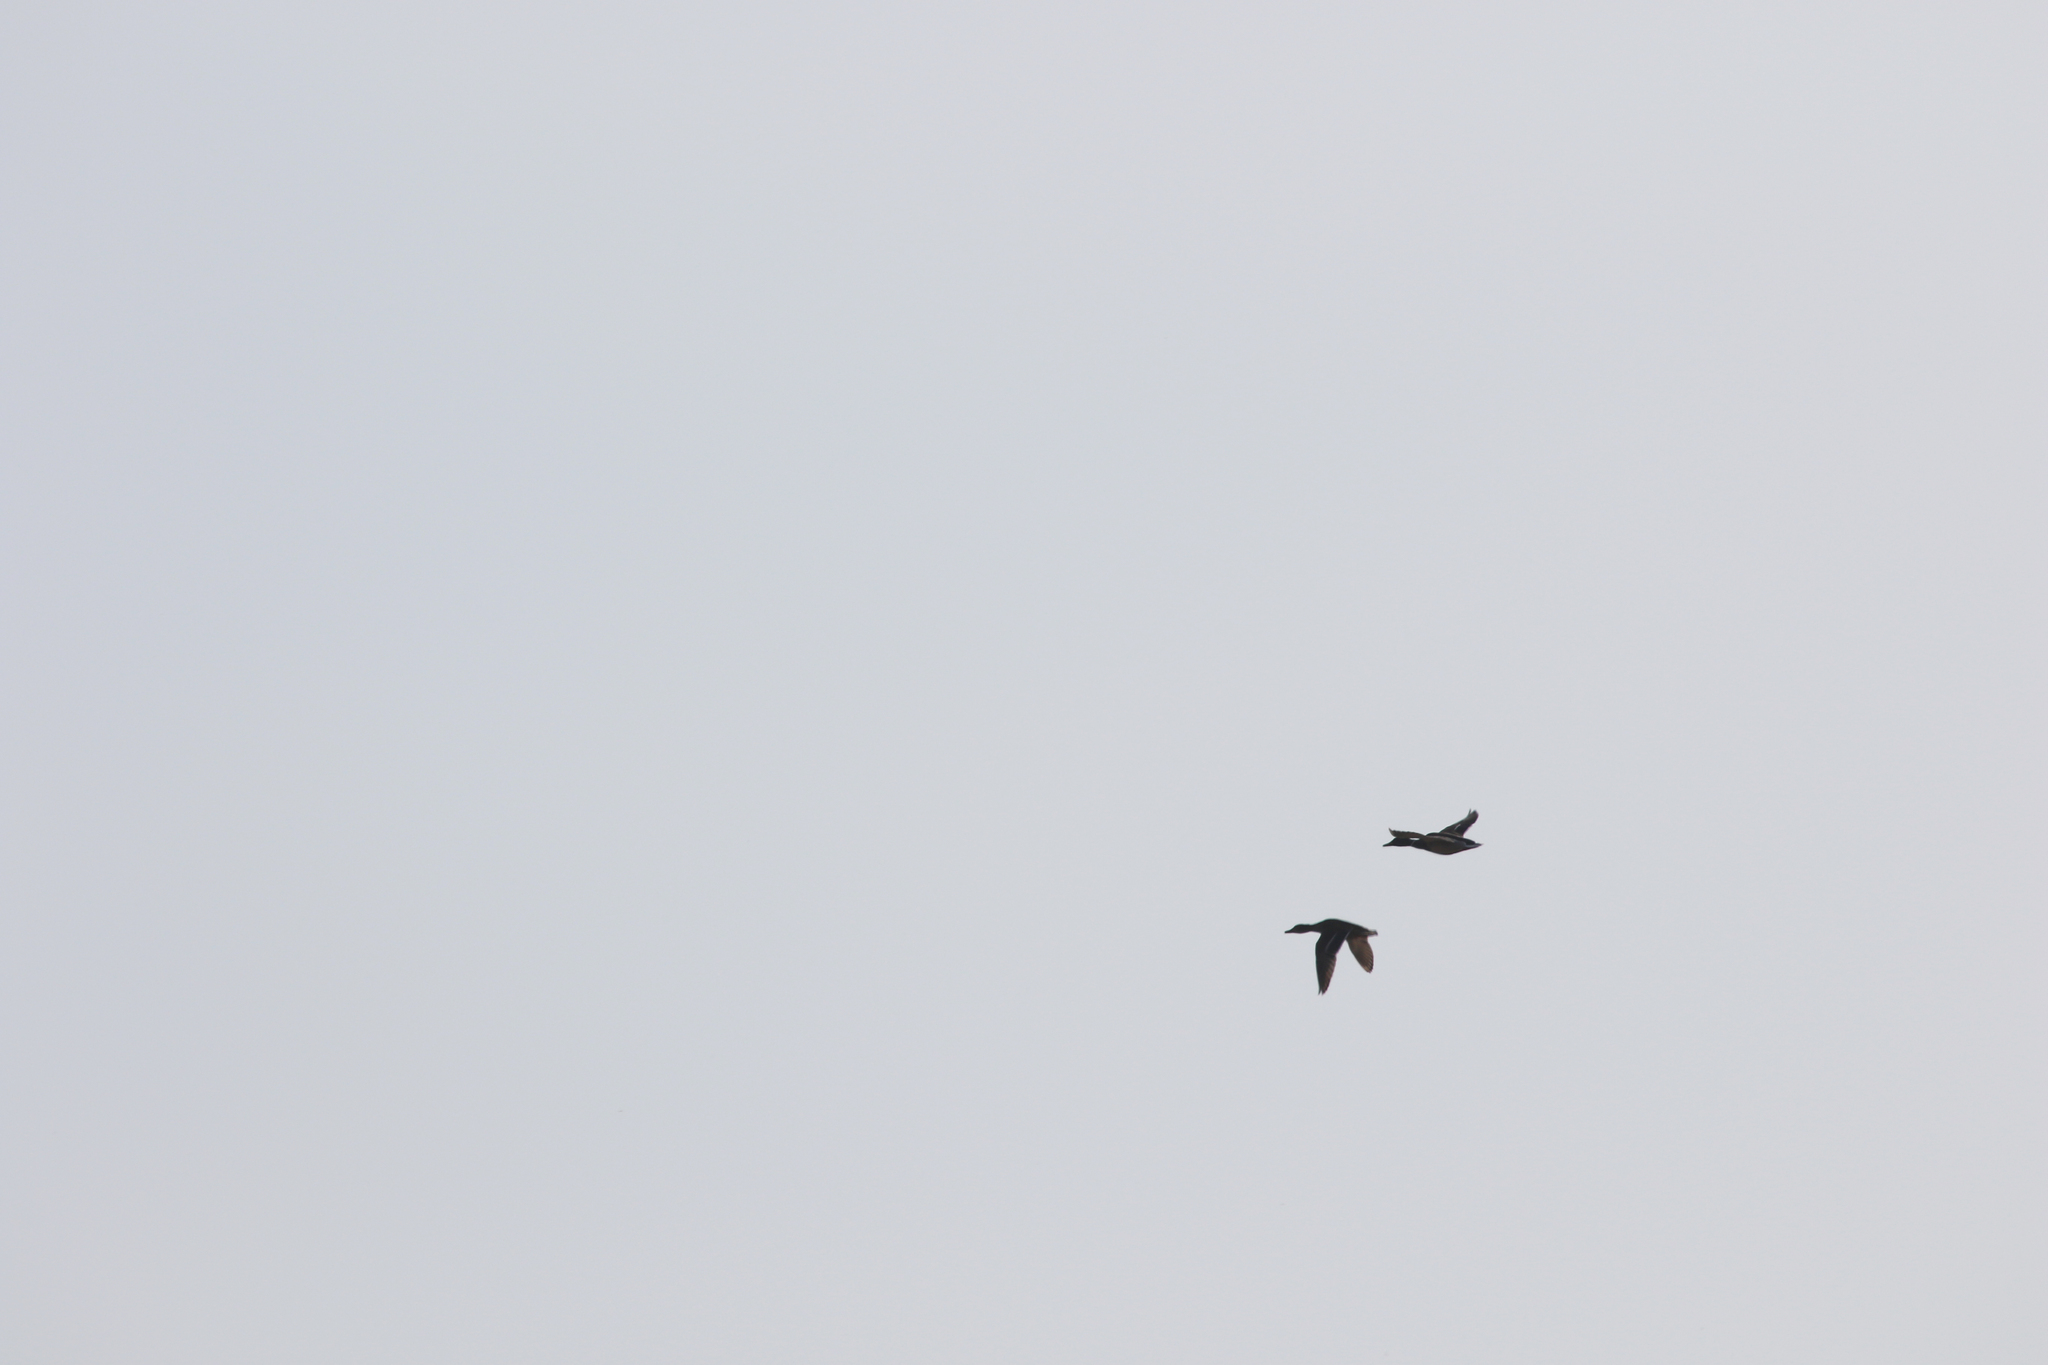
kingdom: Animalia
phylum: Chordata
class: Aves
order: Anseriformes
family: Anatidae
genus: Anas
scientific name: Anas platyrhynchos
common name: Mallard
